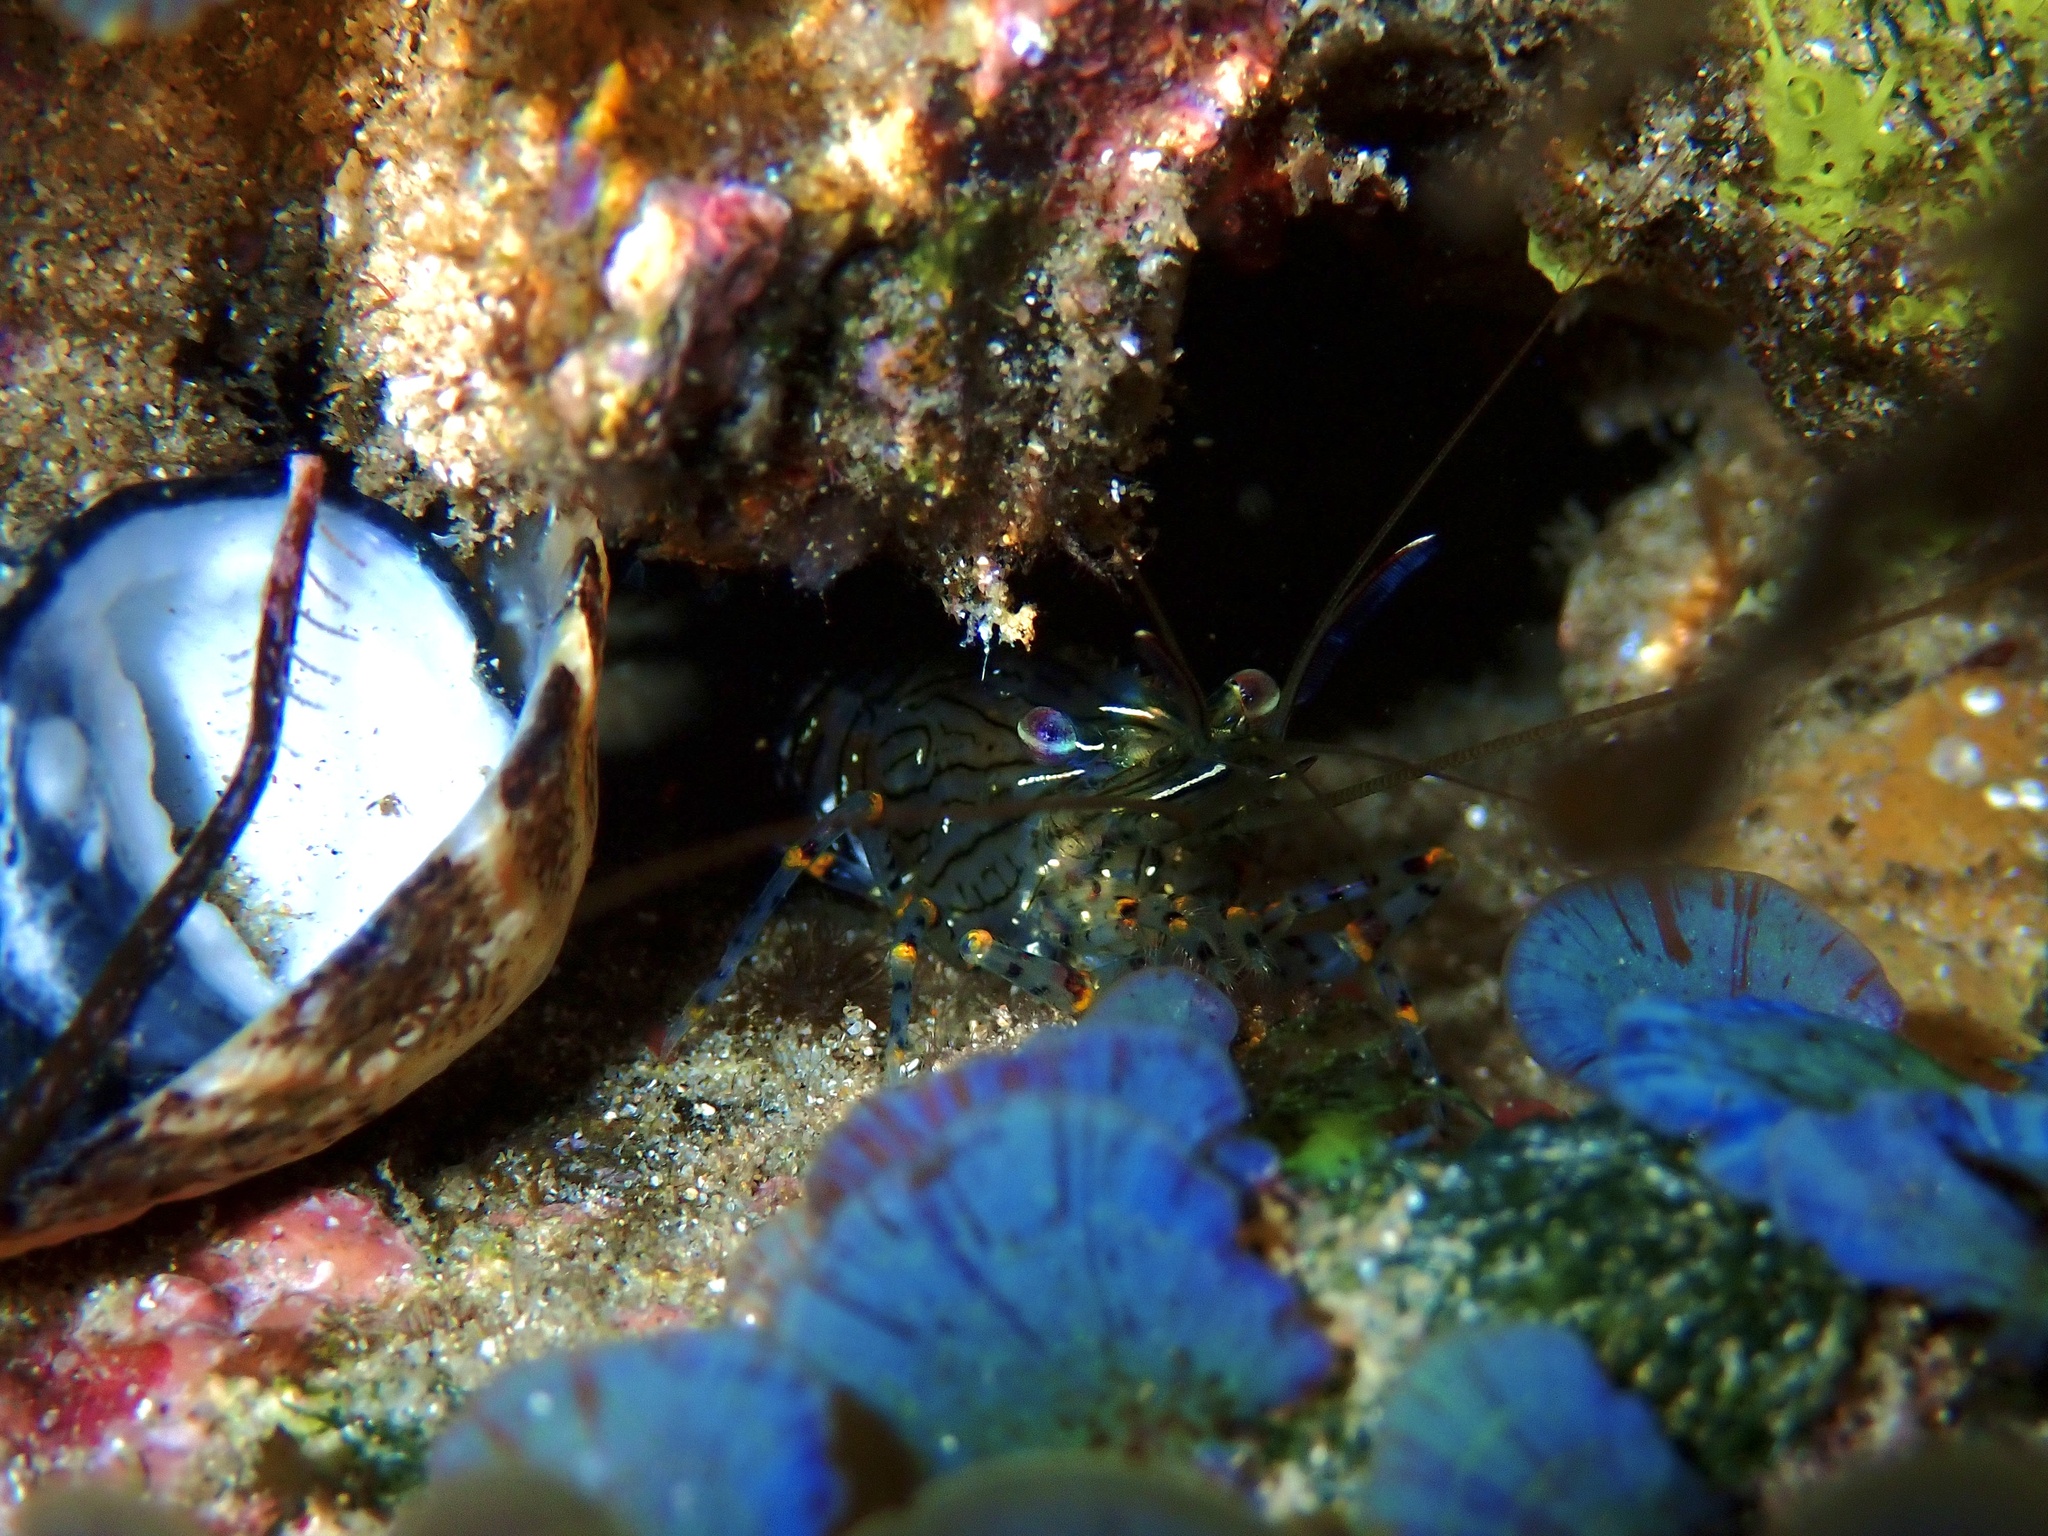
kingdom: Animalia
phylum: Arthropoda
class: Malacostraca
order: Decapoda
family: Palaemonidae
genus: Palaemon
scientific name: Palaemon serenus
